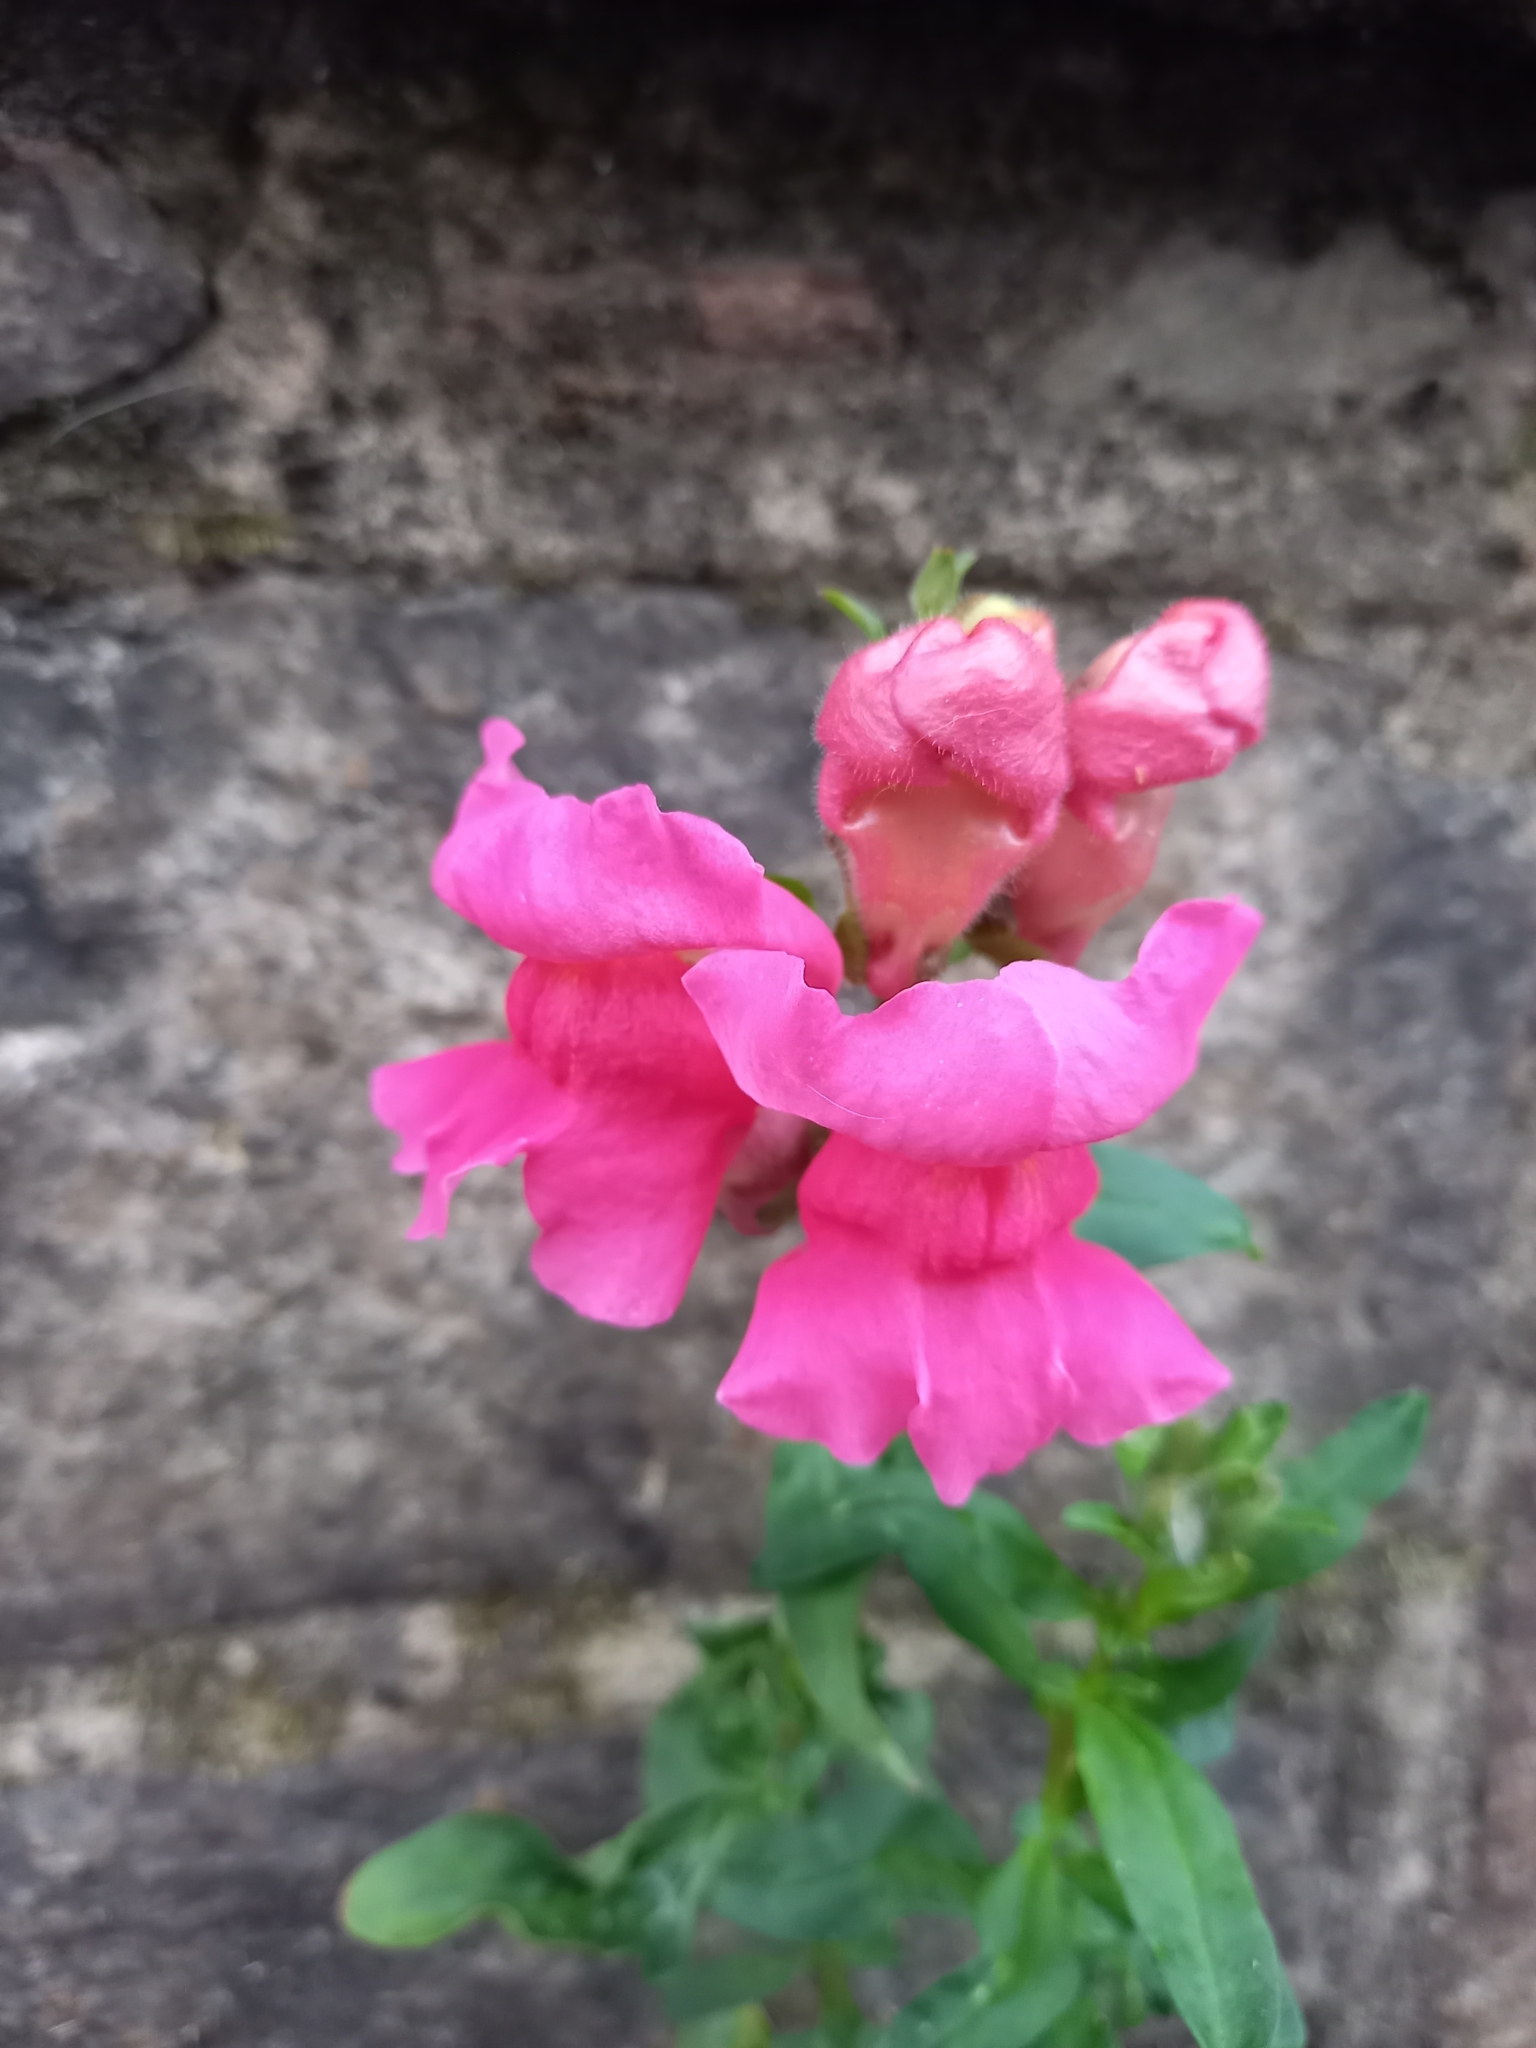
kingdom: Plantae
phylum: Tracheophyta
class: Magnoliopsida
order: Lamiales
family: Plantaginaceae
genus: Antirrhinum
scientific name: Antirrhinum majus
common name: Snapdragon
